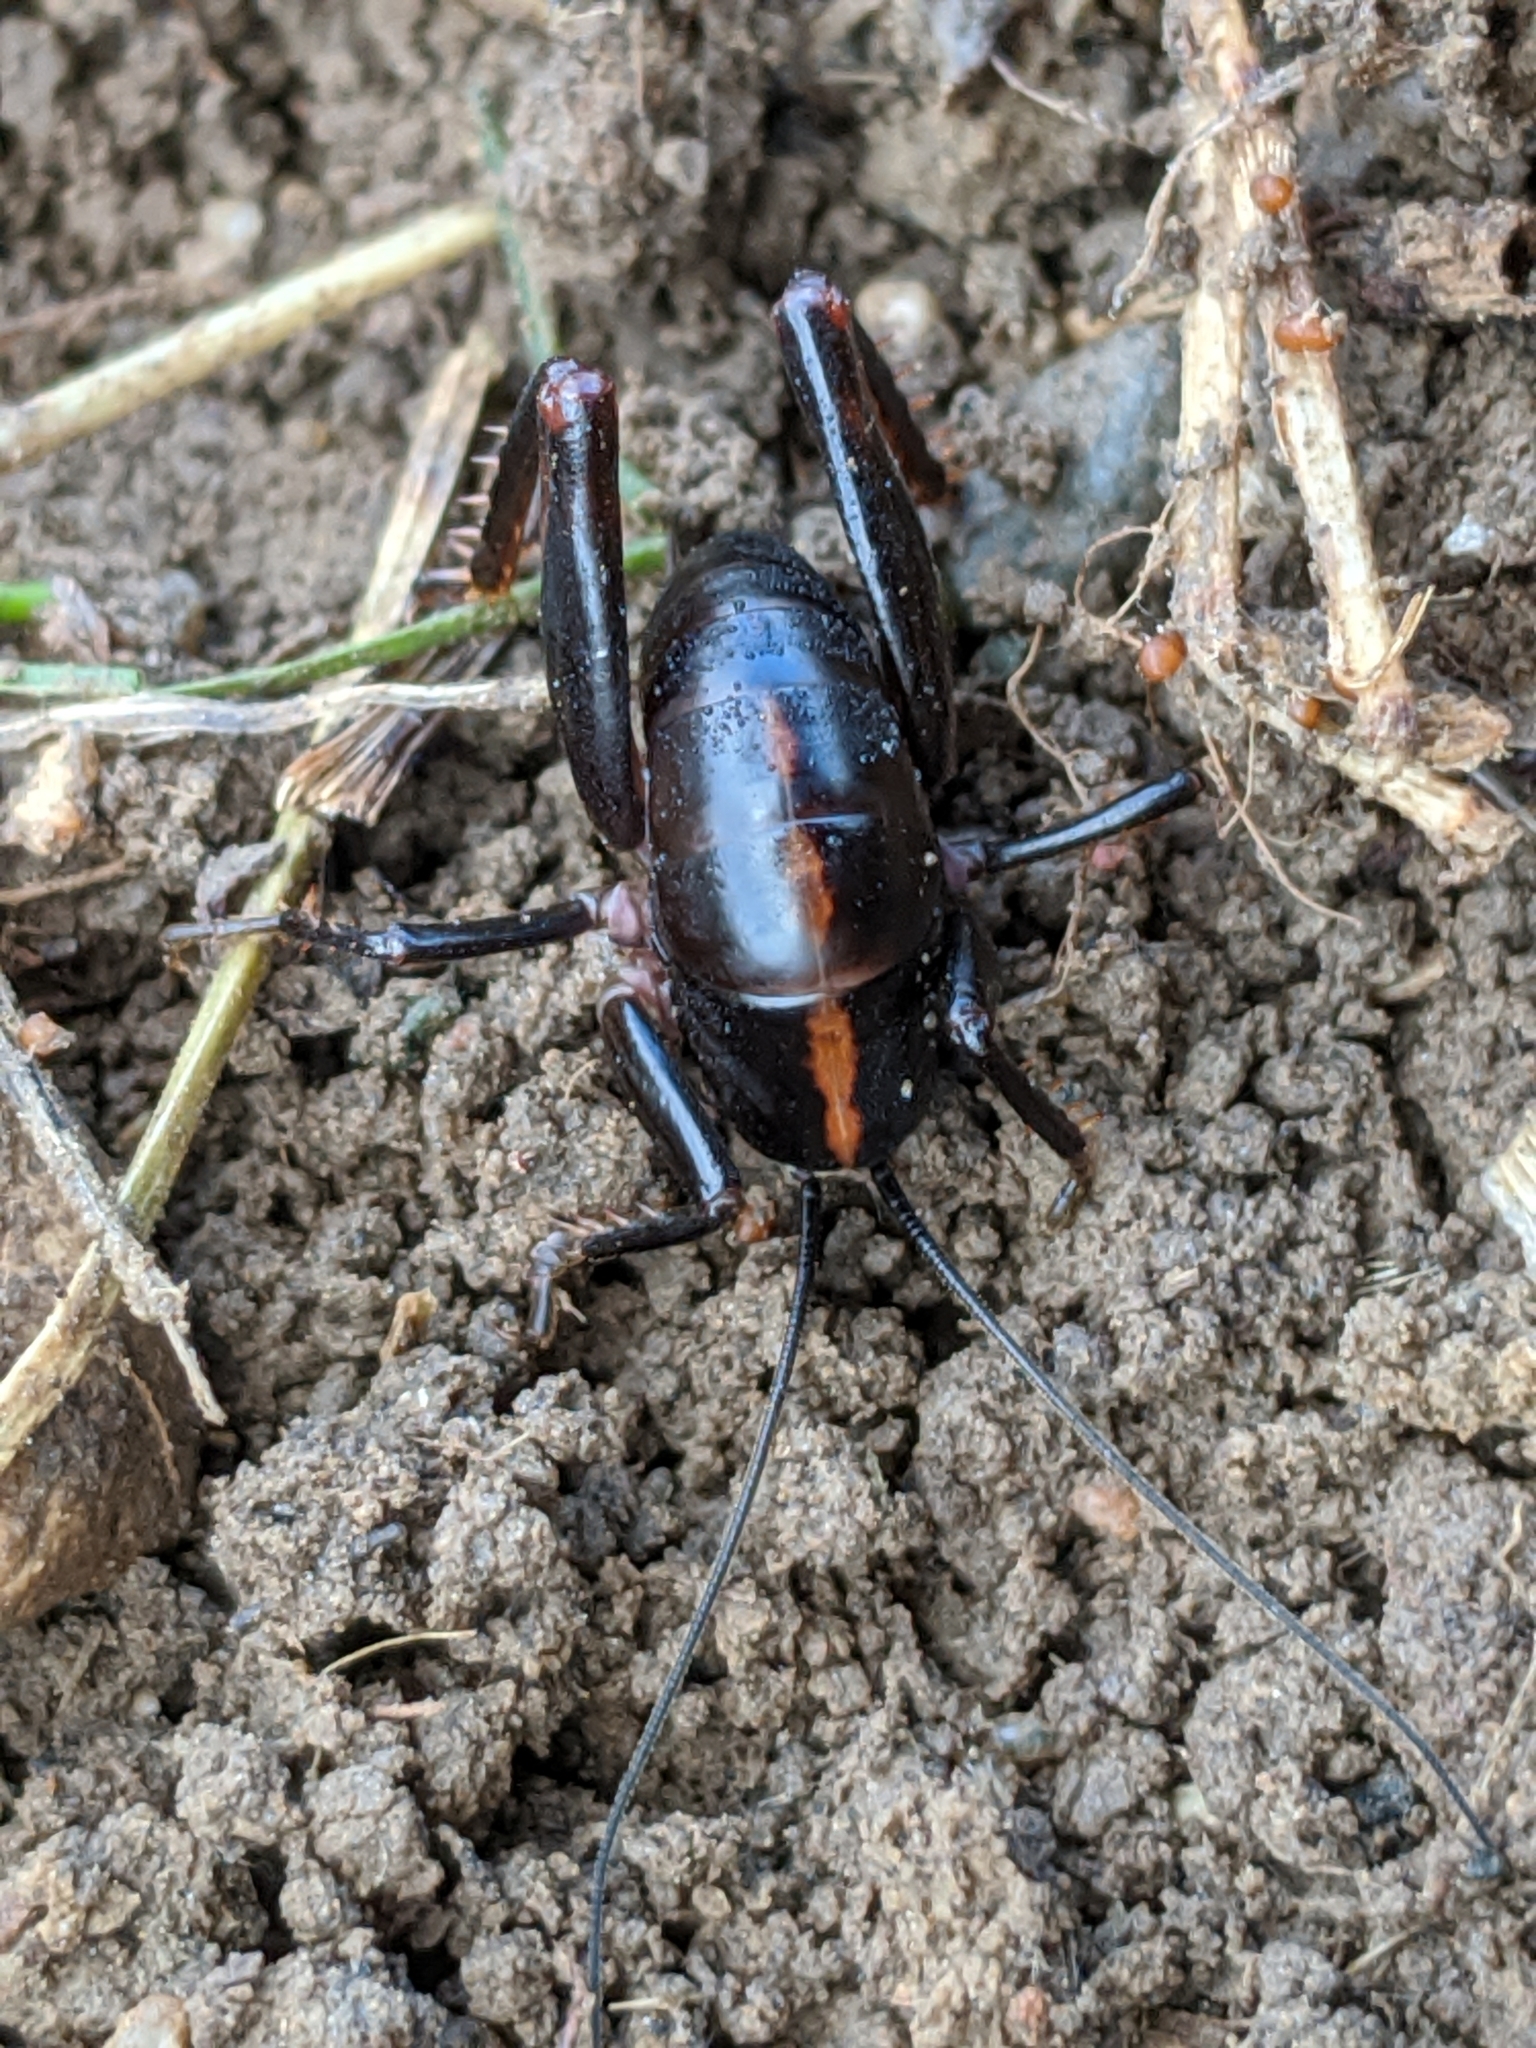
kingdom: Animalia
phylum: Arthropoda
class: Insecta
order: Orthoptera
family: Rhaphidophoridae
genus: Udeopsylla
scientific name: Udeopsylla robusta
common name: Robust camel cricket
